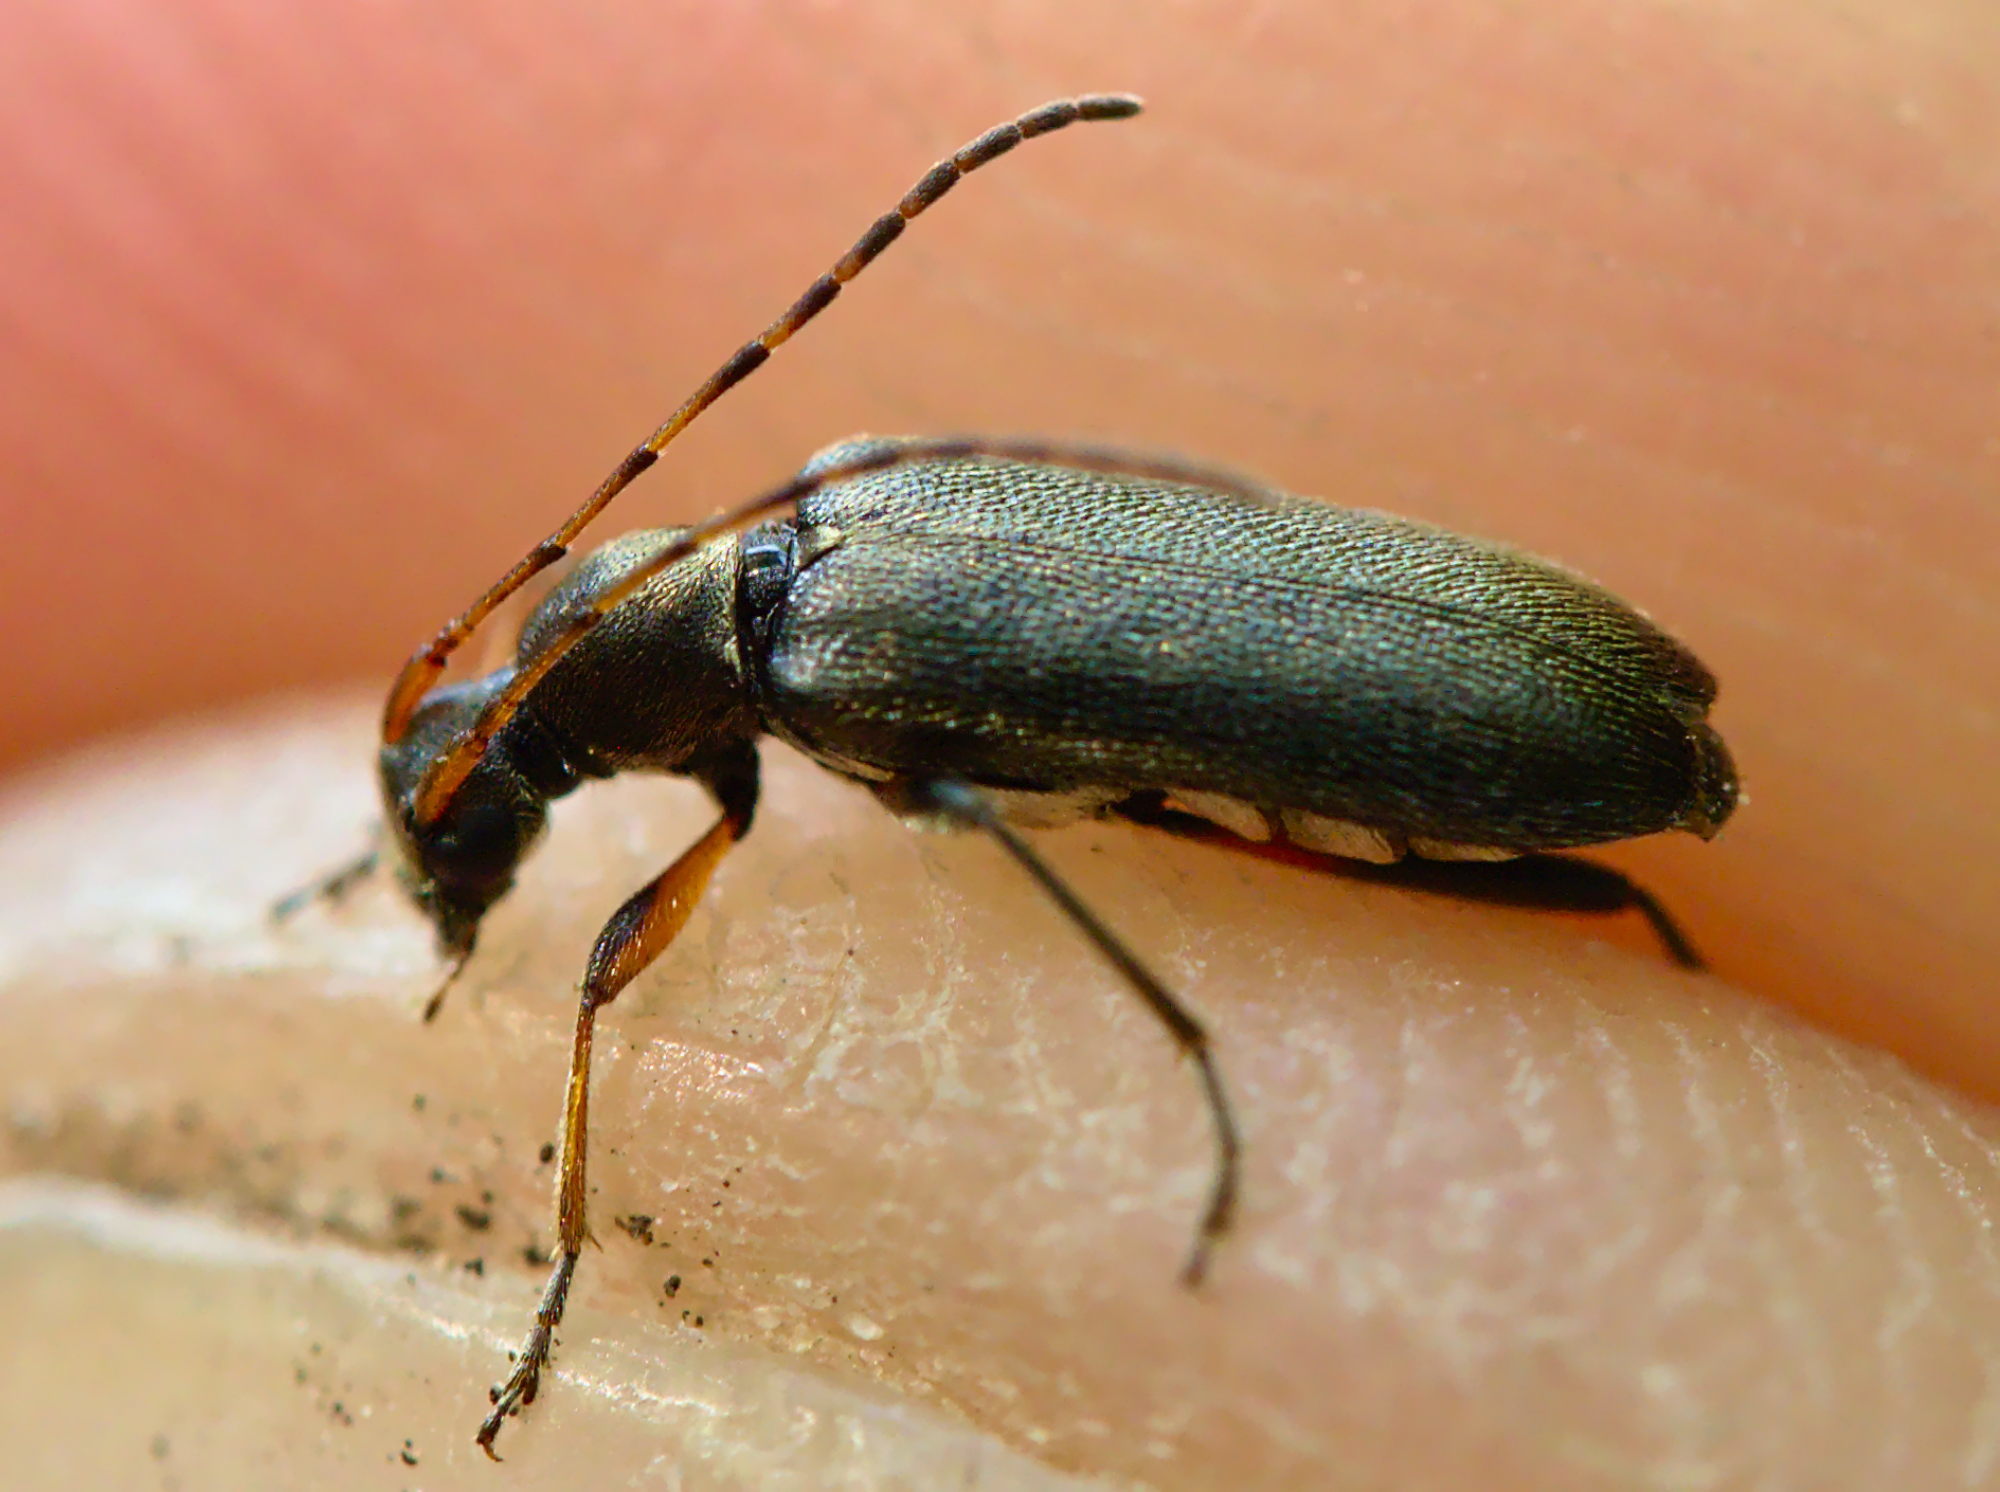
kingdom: Animalia
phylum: Arthropoda
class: Insecta
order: Coleoptera
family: Cerambycidae
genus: Grammoptera
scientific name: Grammoptera ruficornis
